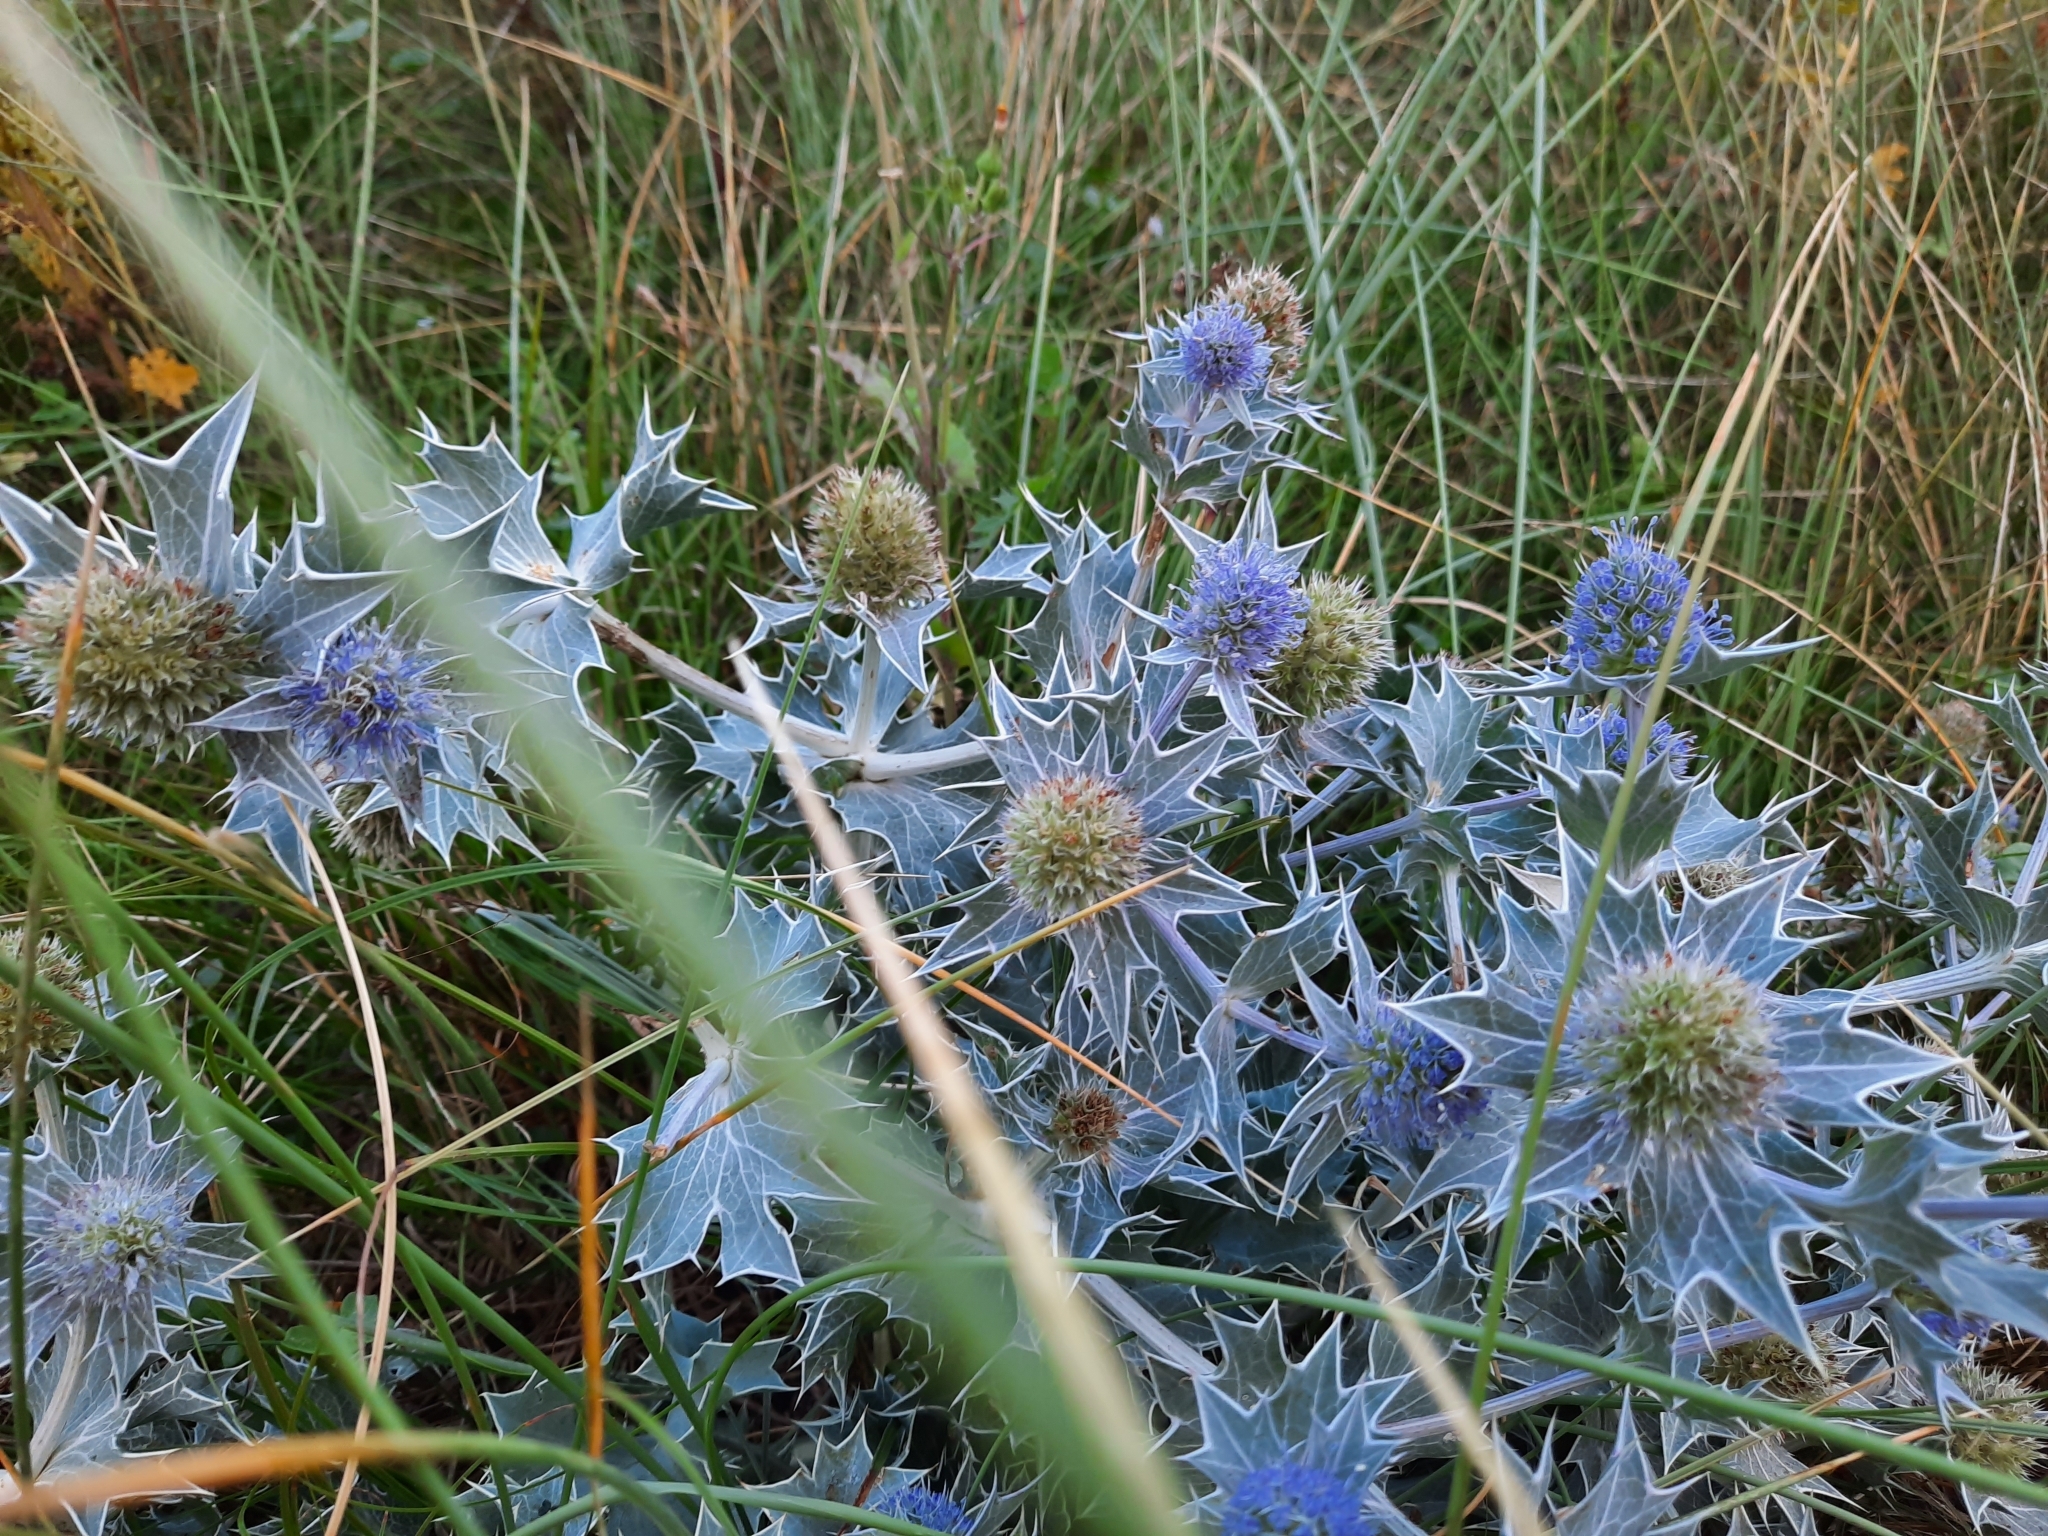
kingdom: Plantae
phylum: Tracheophyta
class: Magnoliopsida
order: Apiales
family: Apiaceae
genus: Eryngium
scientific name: Eryngium maritimum
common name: Sea-holly
